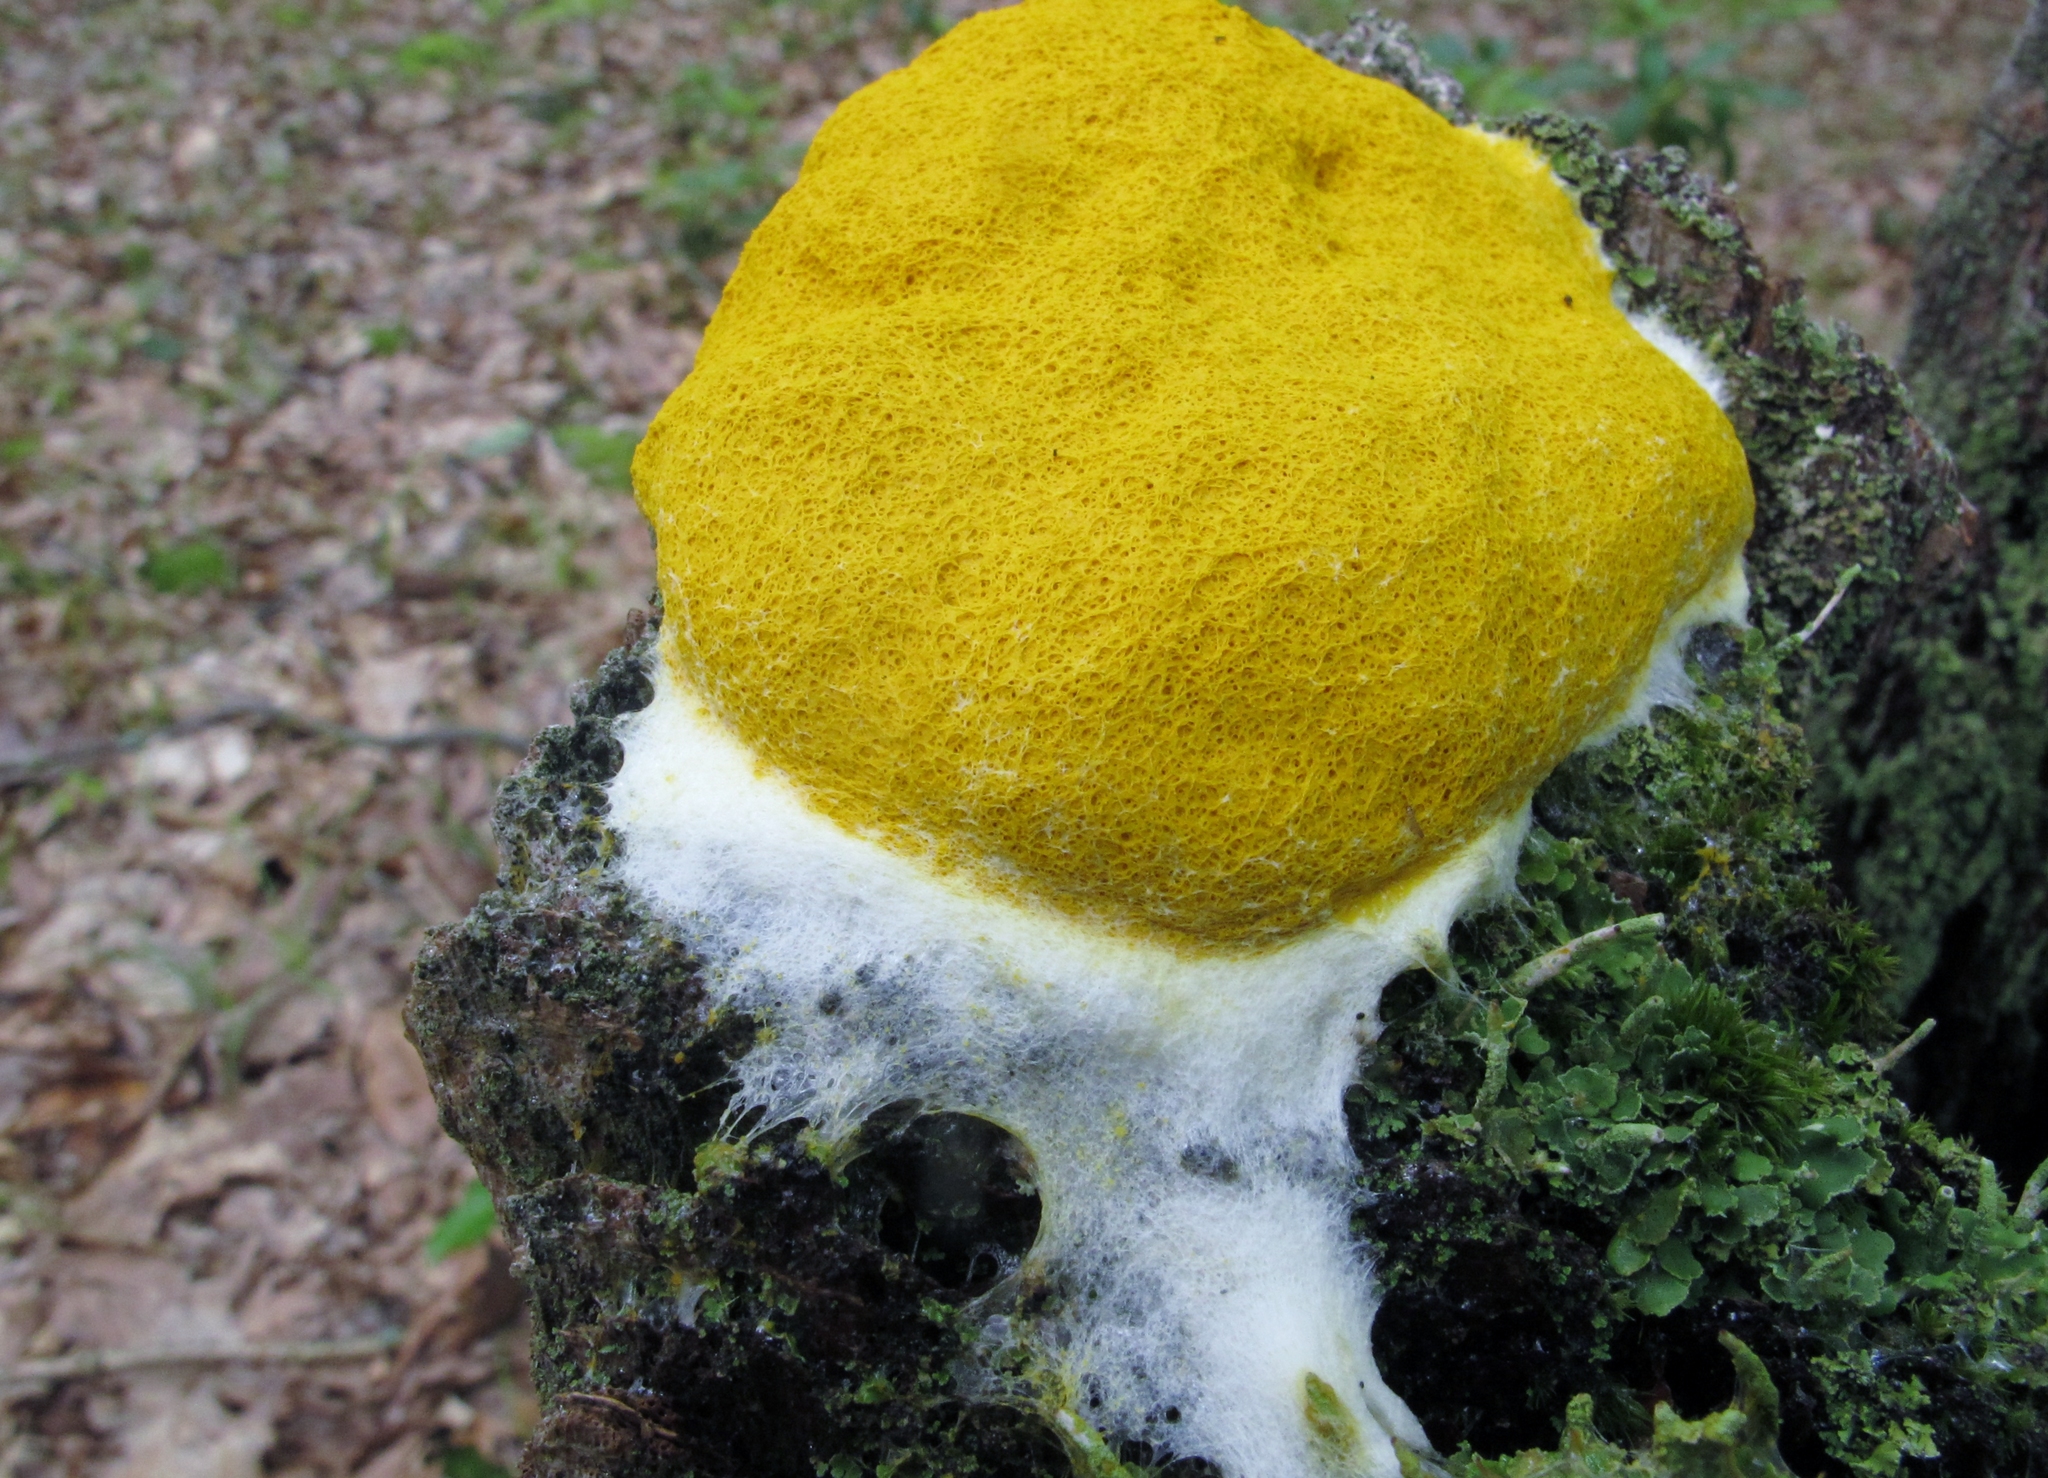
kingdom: Protozoa
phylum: Mycetozoa
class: Myxomycetes
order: Physarales
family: Physaraceae
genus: Fuligo
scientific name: Fuligo septica
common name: Dog vomit slime mold
